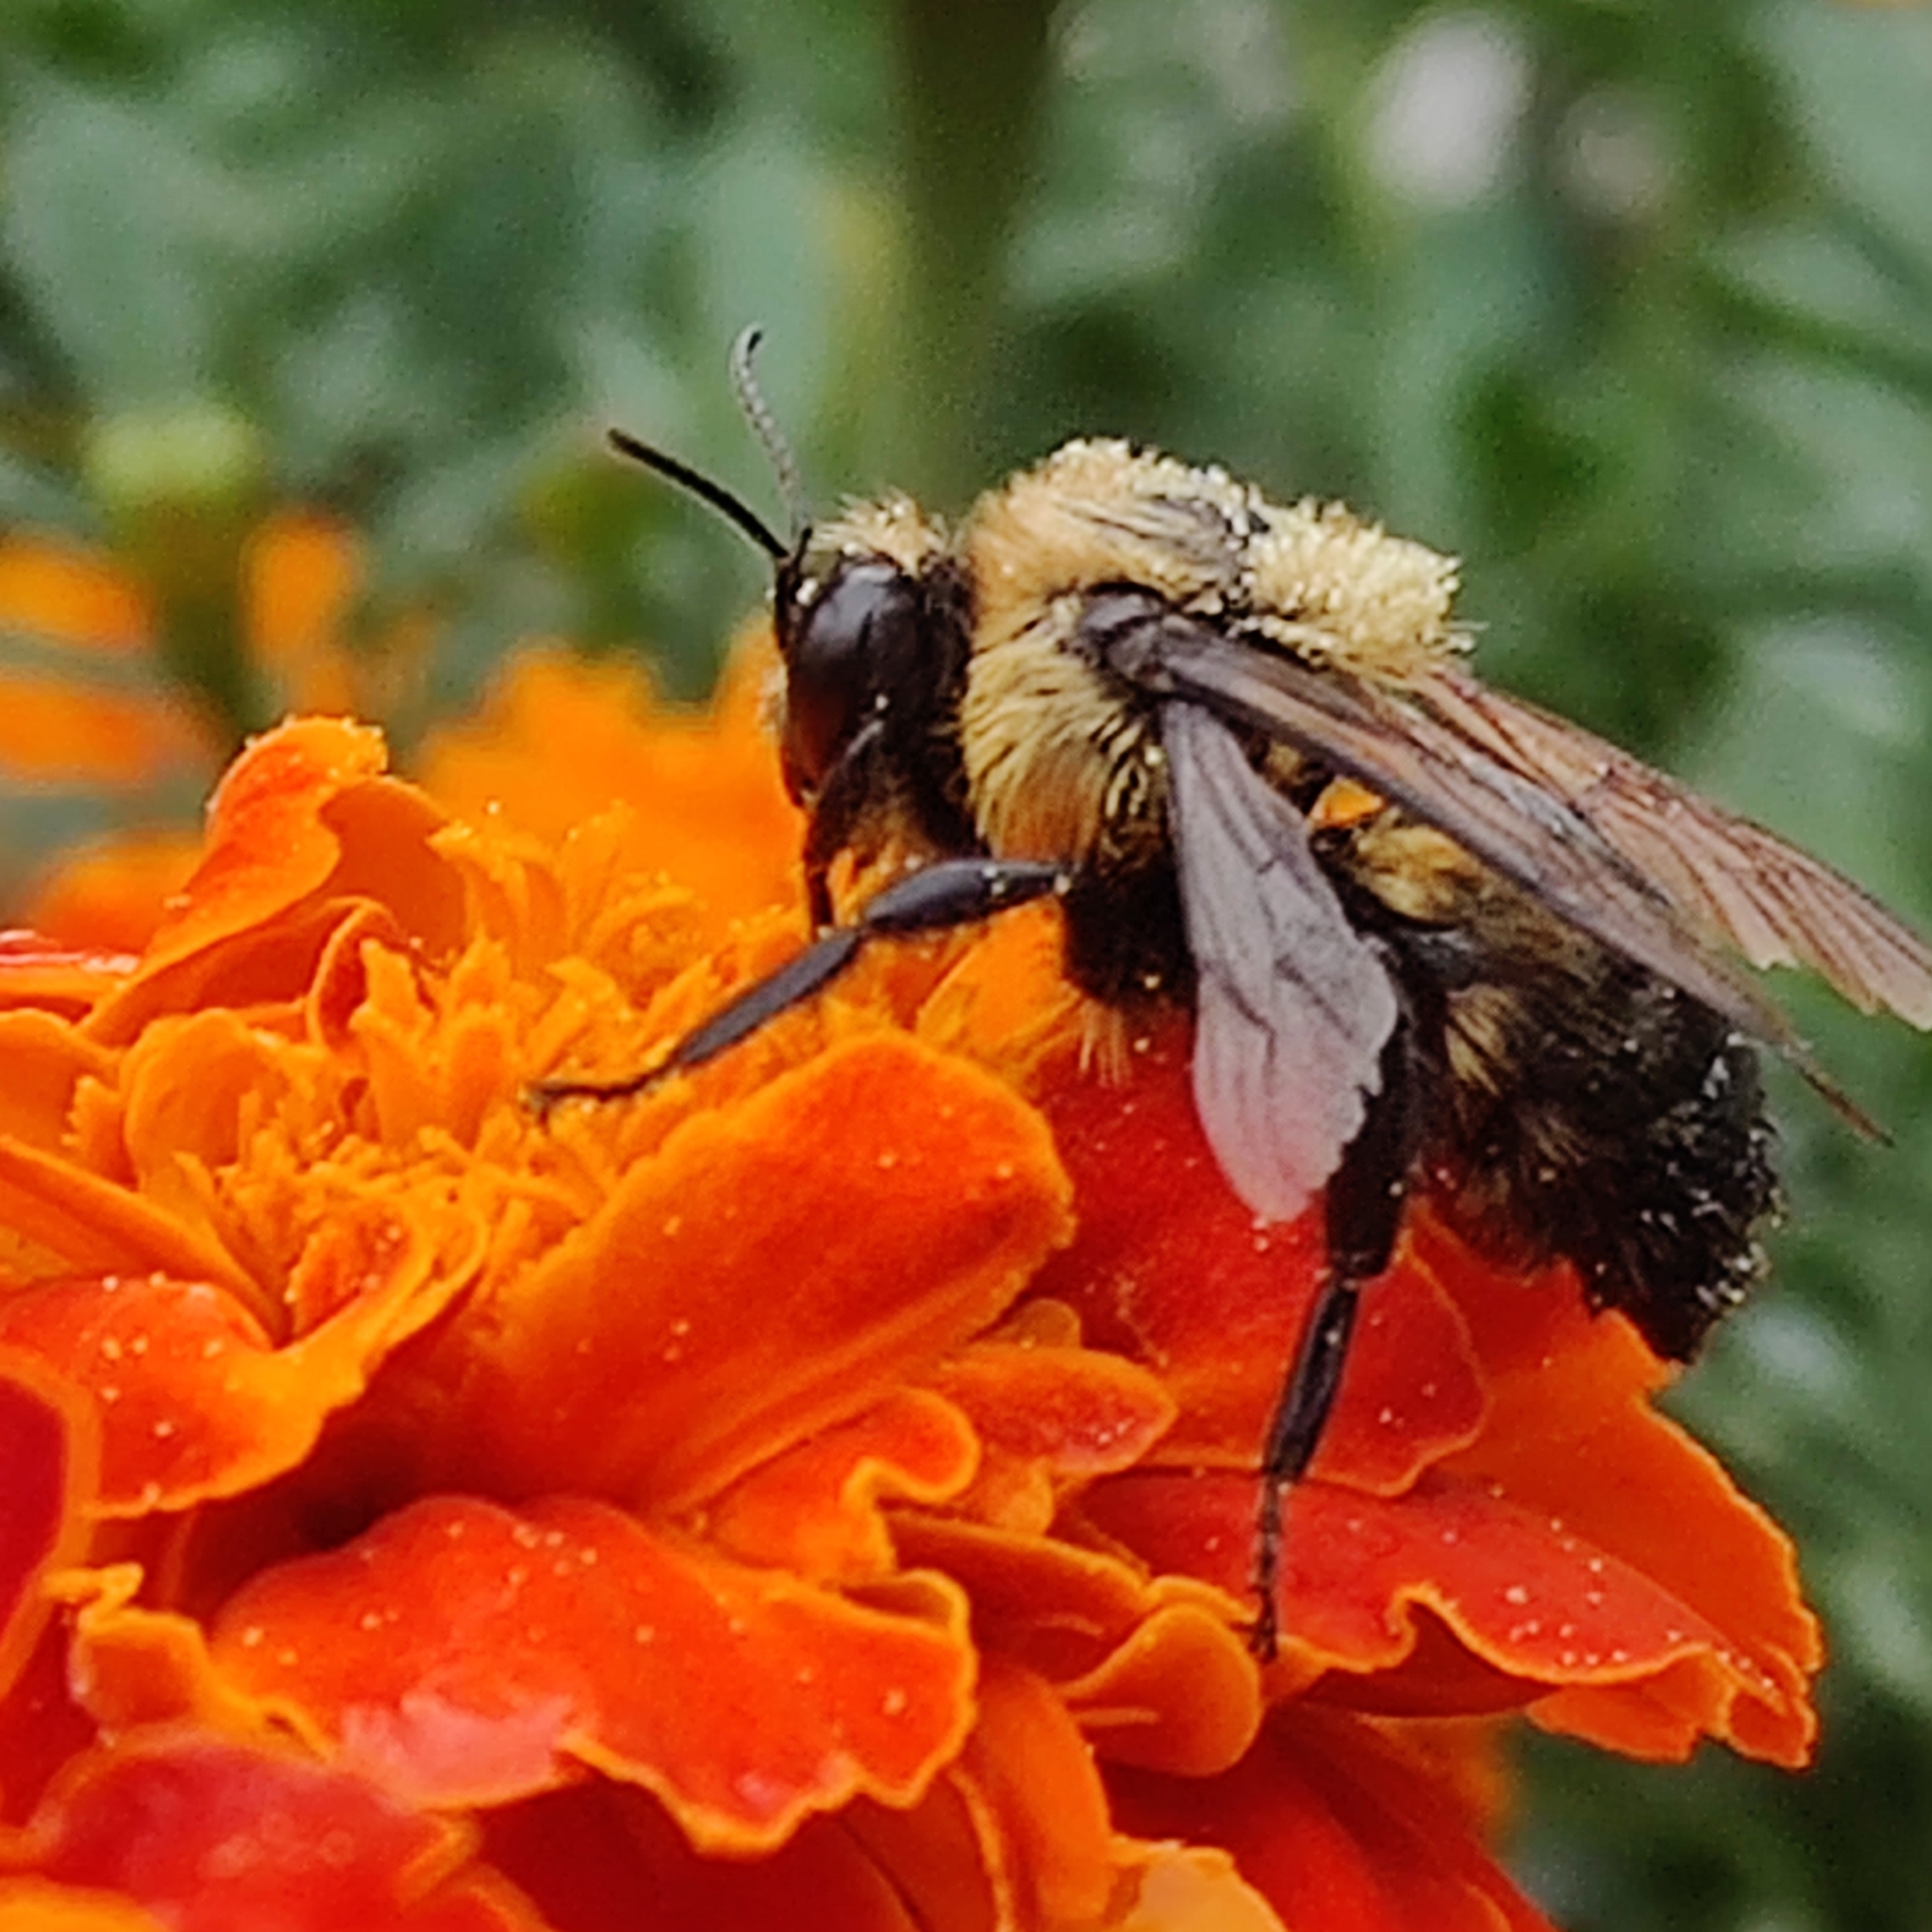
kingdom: Animalia
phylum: Arthropoda
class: Insecta
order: Hymenoptera
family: Apidae
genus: Bombus
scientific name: Bombus griseocollis
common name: Brown-belted bumble bee
